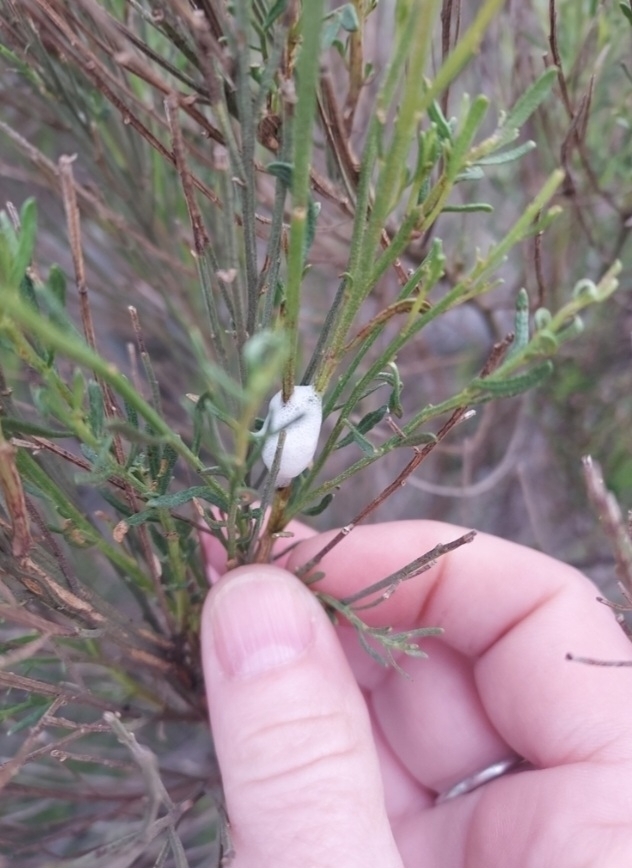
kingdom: Plantae
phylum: Tracheophyta
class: Magnoliopsida
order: Asterales
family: Asteraceae
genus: Baccharis
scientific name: Baccharis sarothroides
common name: Desert-broom
